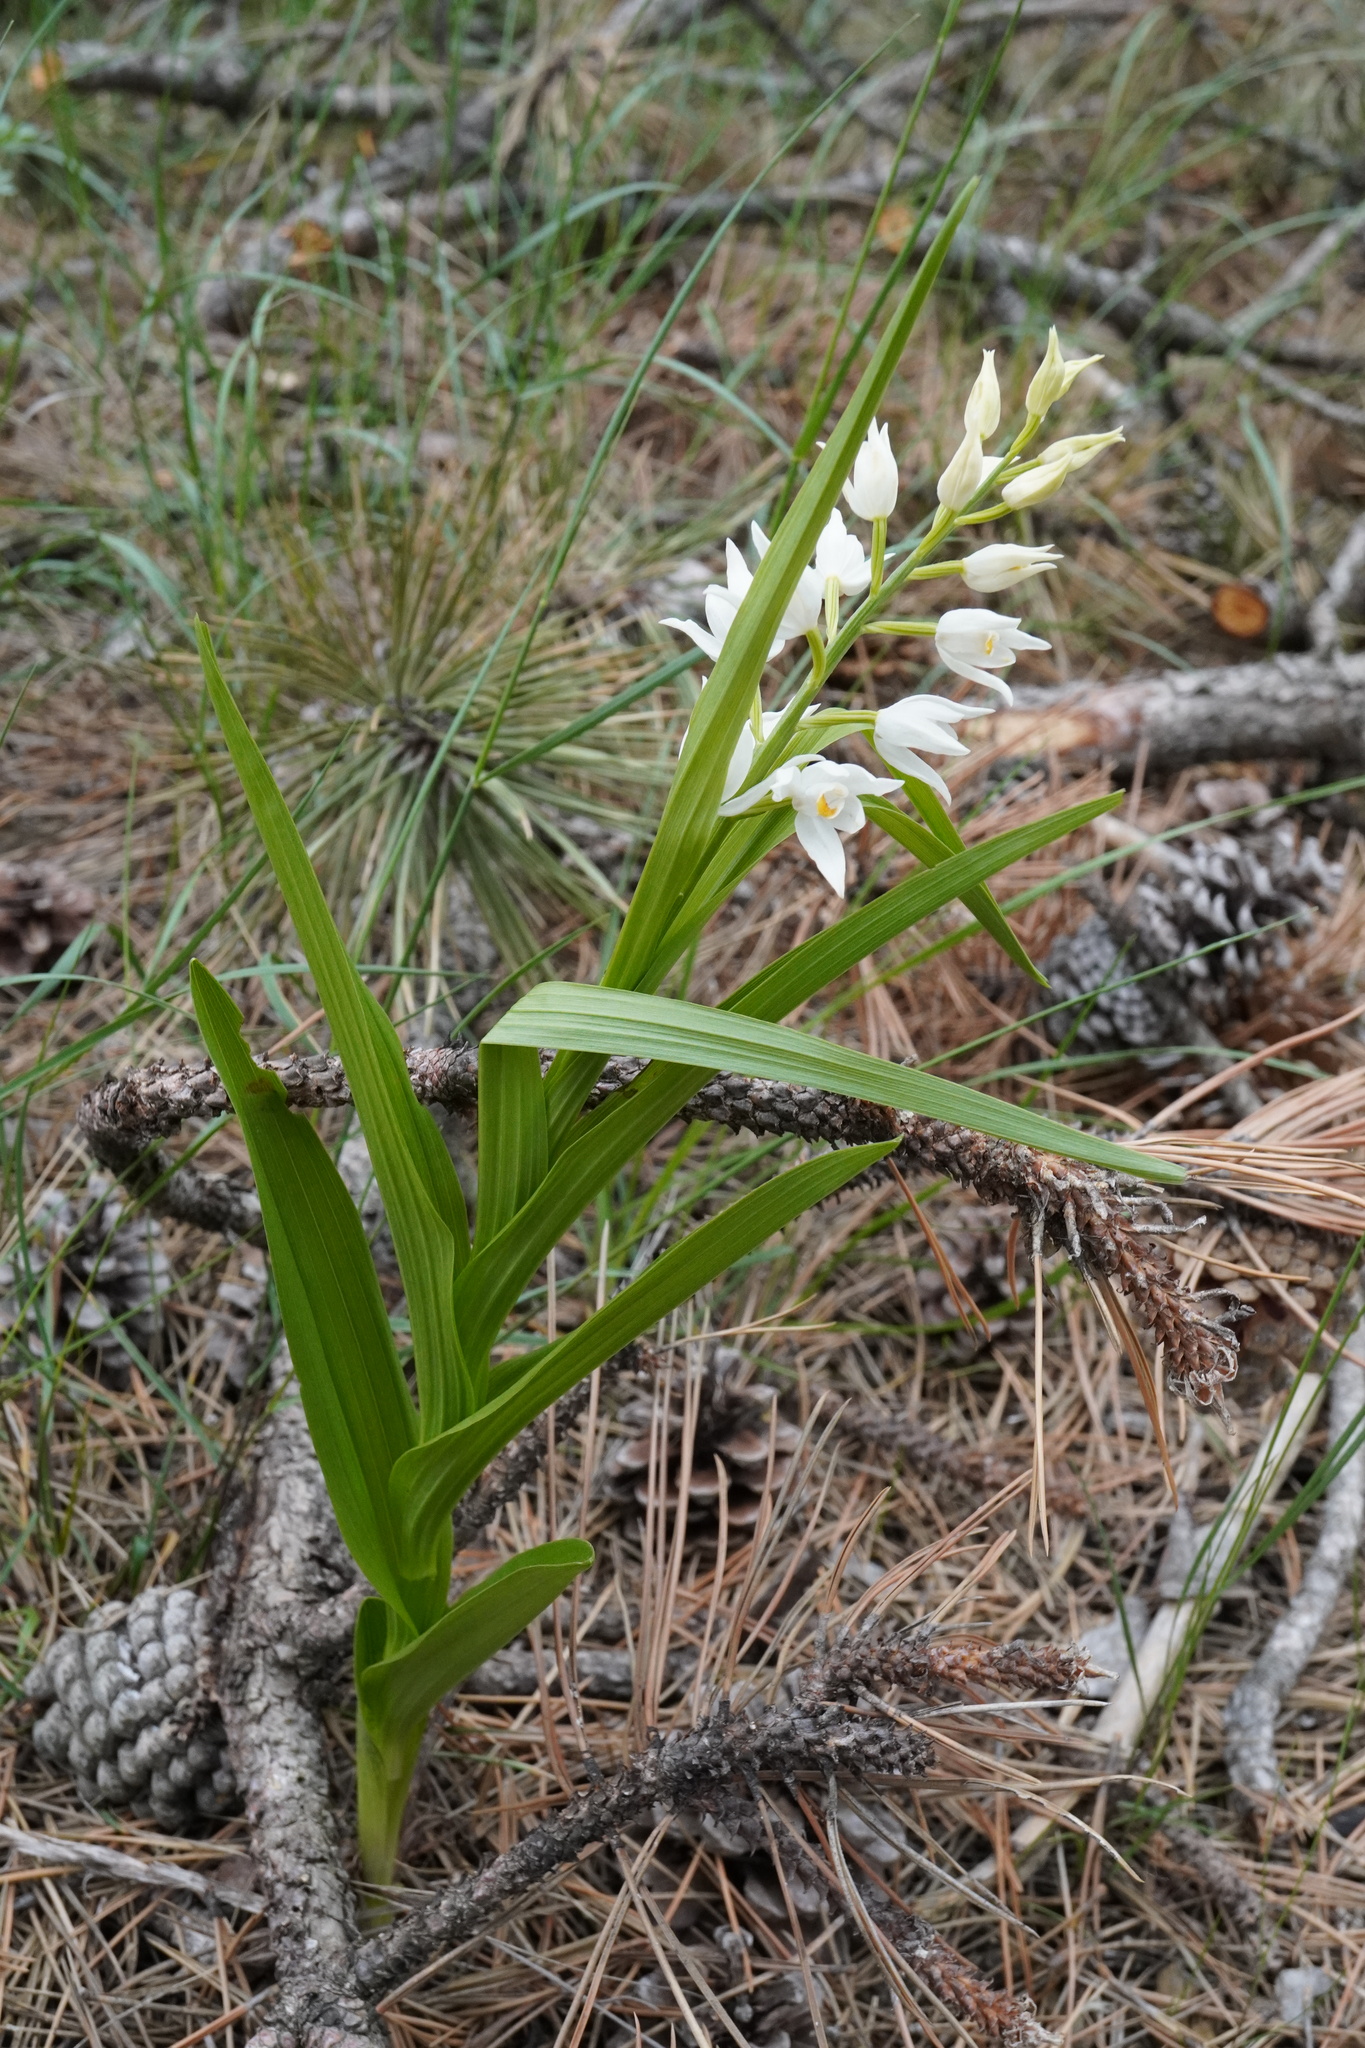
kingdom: Plantae
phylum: Tracheophyta
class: Liliopsida
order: Asparagales
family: Orchidaceae
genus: Cephalanthera
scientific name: Cephalanthera longifolia
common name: Narrow-leaved helleborine
